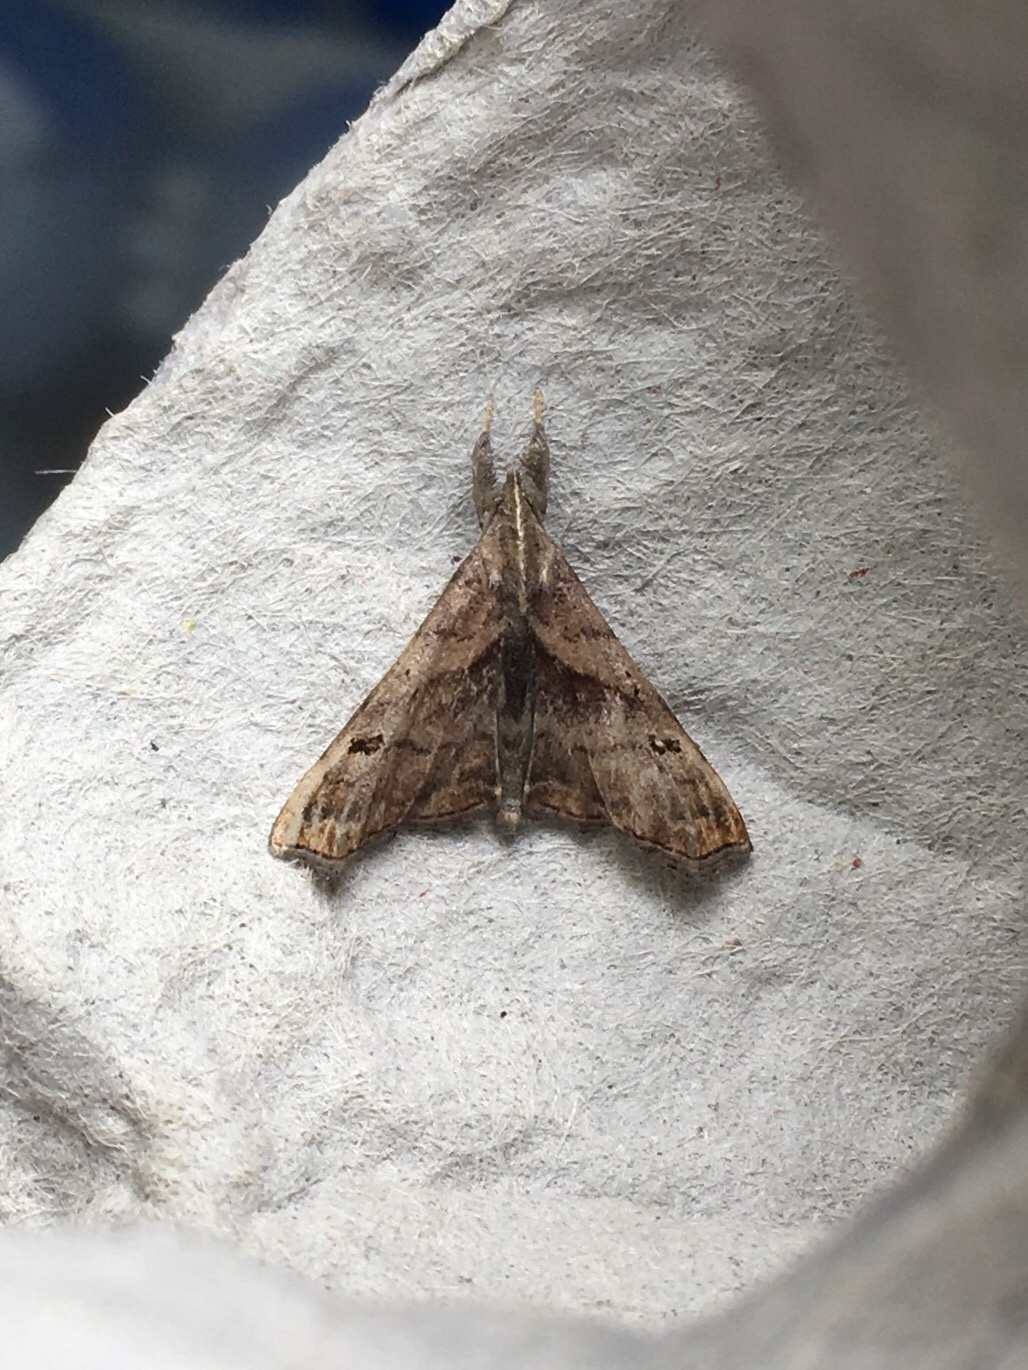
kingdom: Animalia
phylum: Arthropoda
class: Insecta
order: Lepidoptera
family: Erebidae
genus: Palthis
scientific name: Palthis angulalis
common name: Dark-spotted palthis moth
